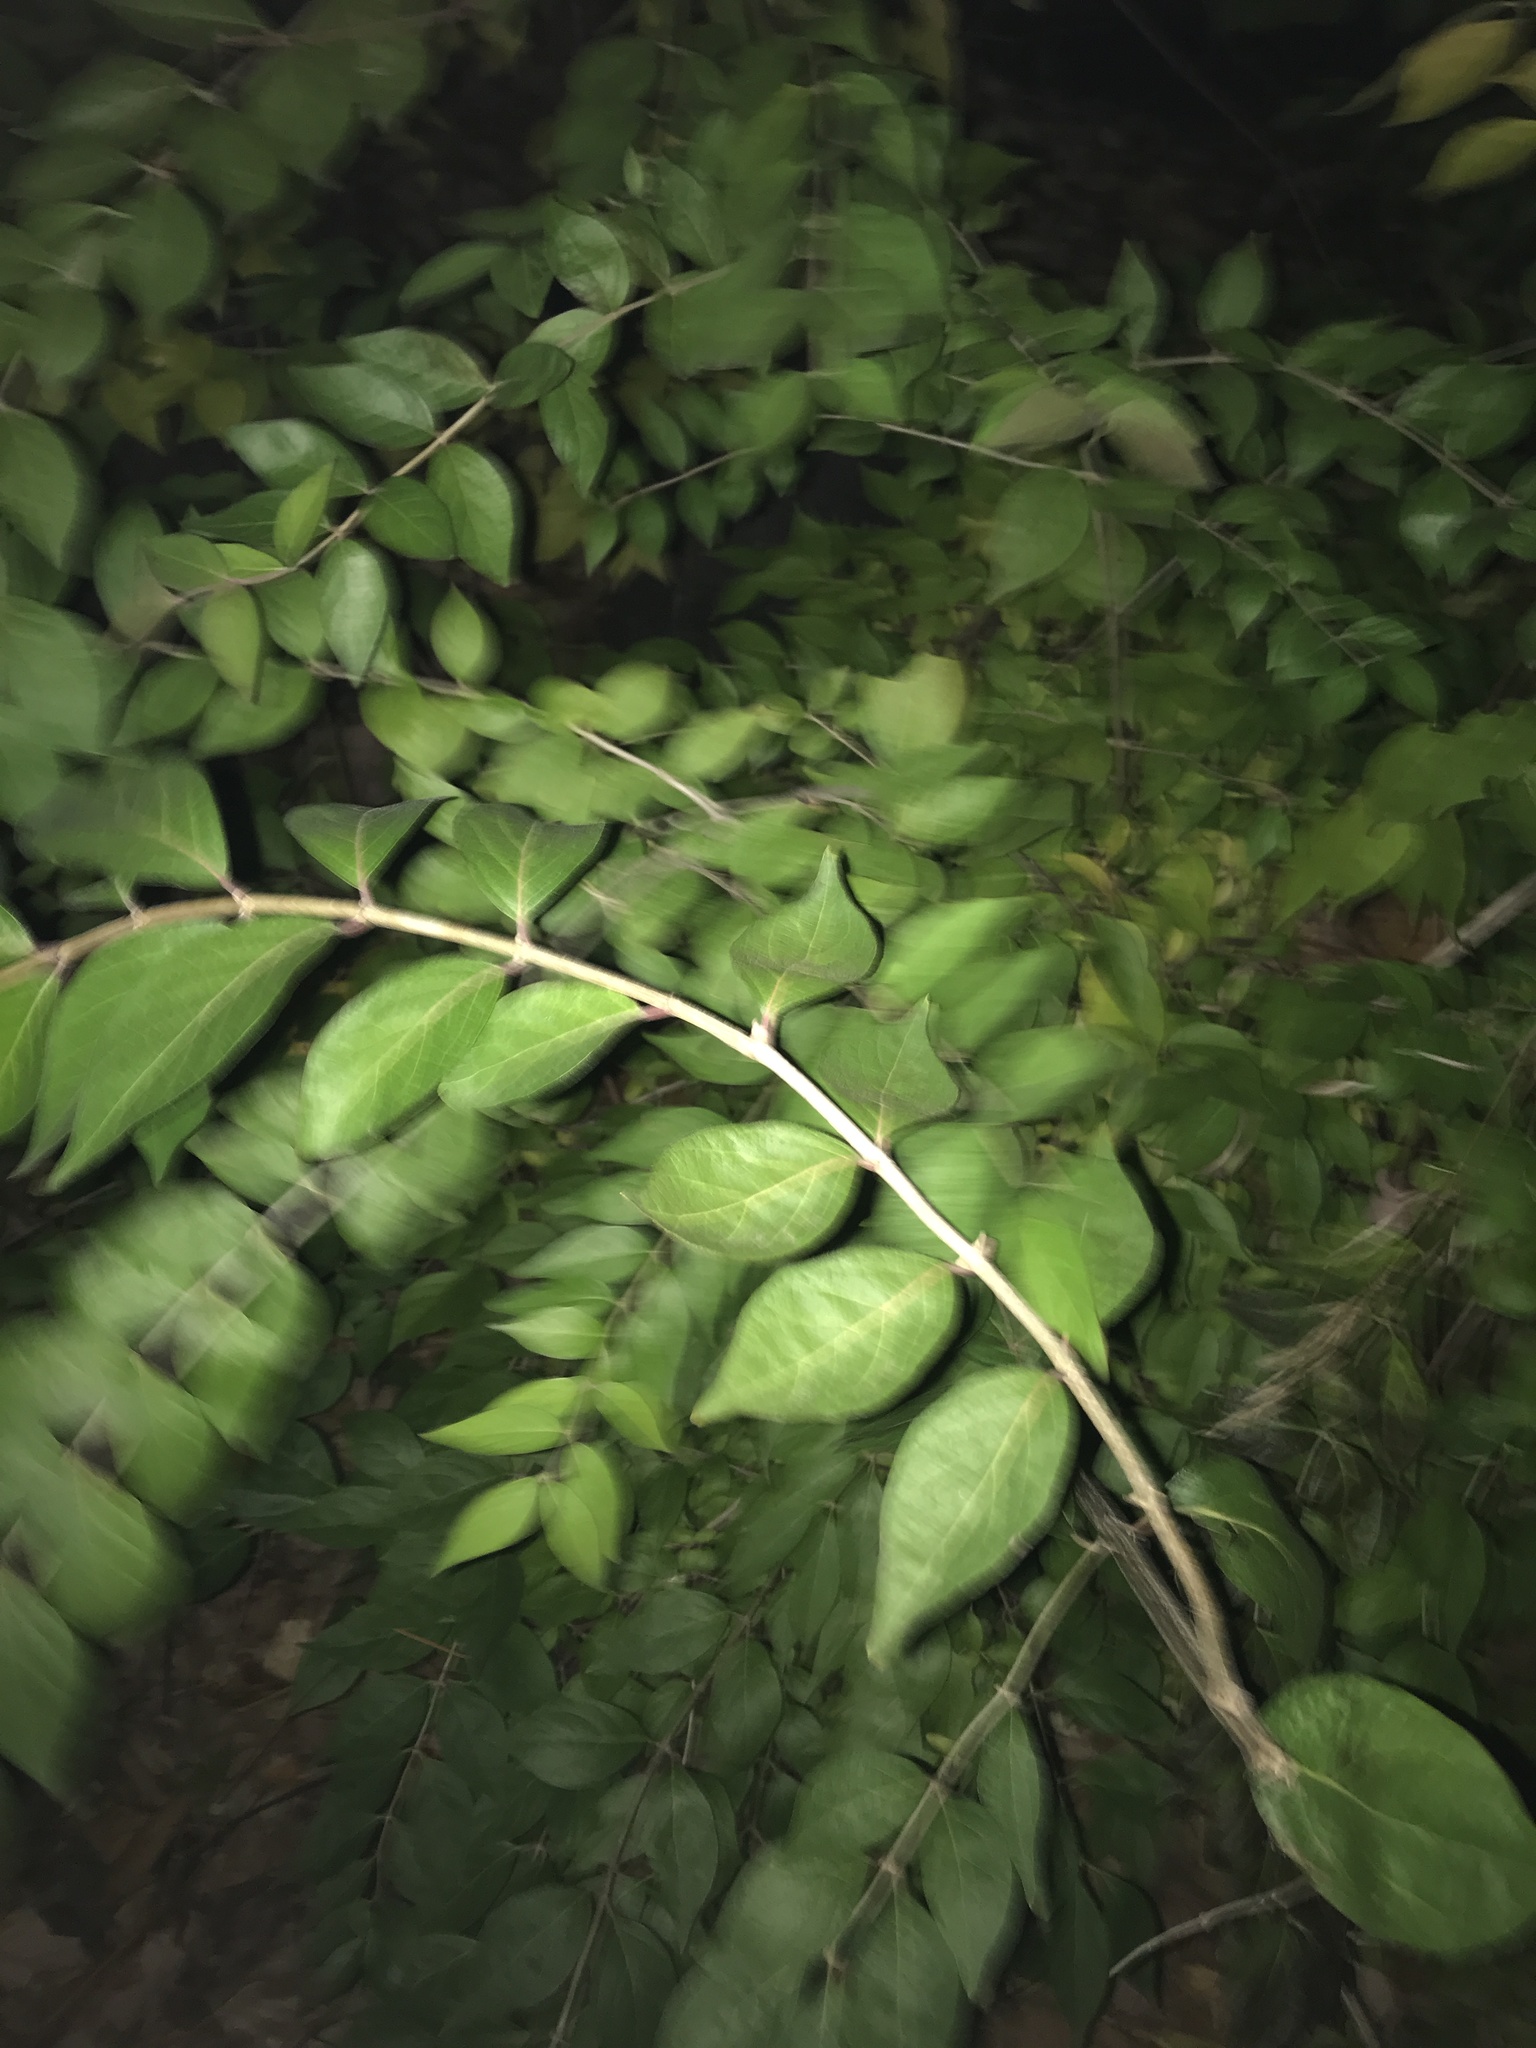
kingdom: Plantae
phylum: Tracheophyta
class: Magnoliopsida
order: Dipsacales
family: Caprifoliaceae
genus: Lonicera
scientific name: Lonicera maackii
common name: Amur honeysuckle
